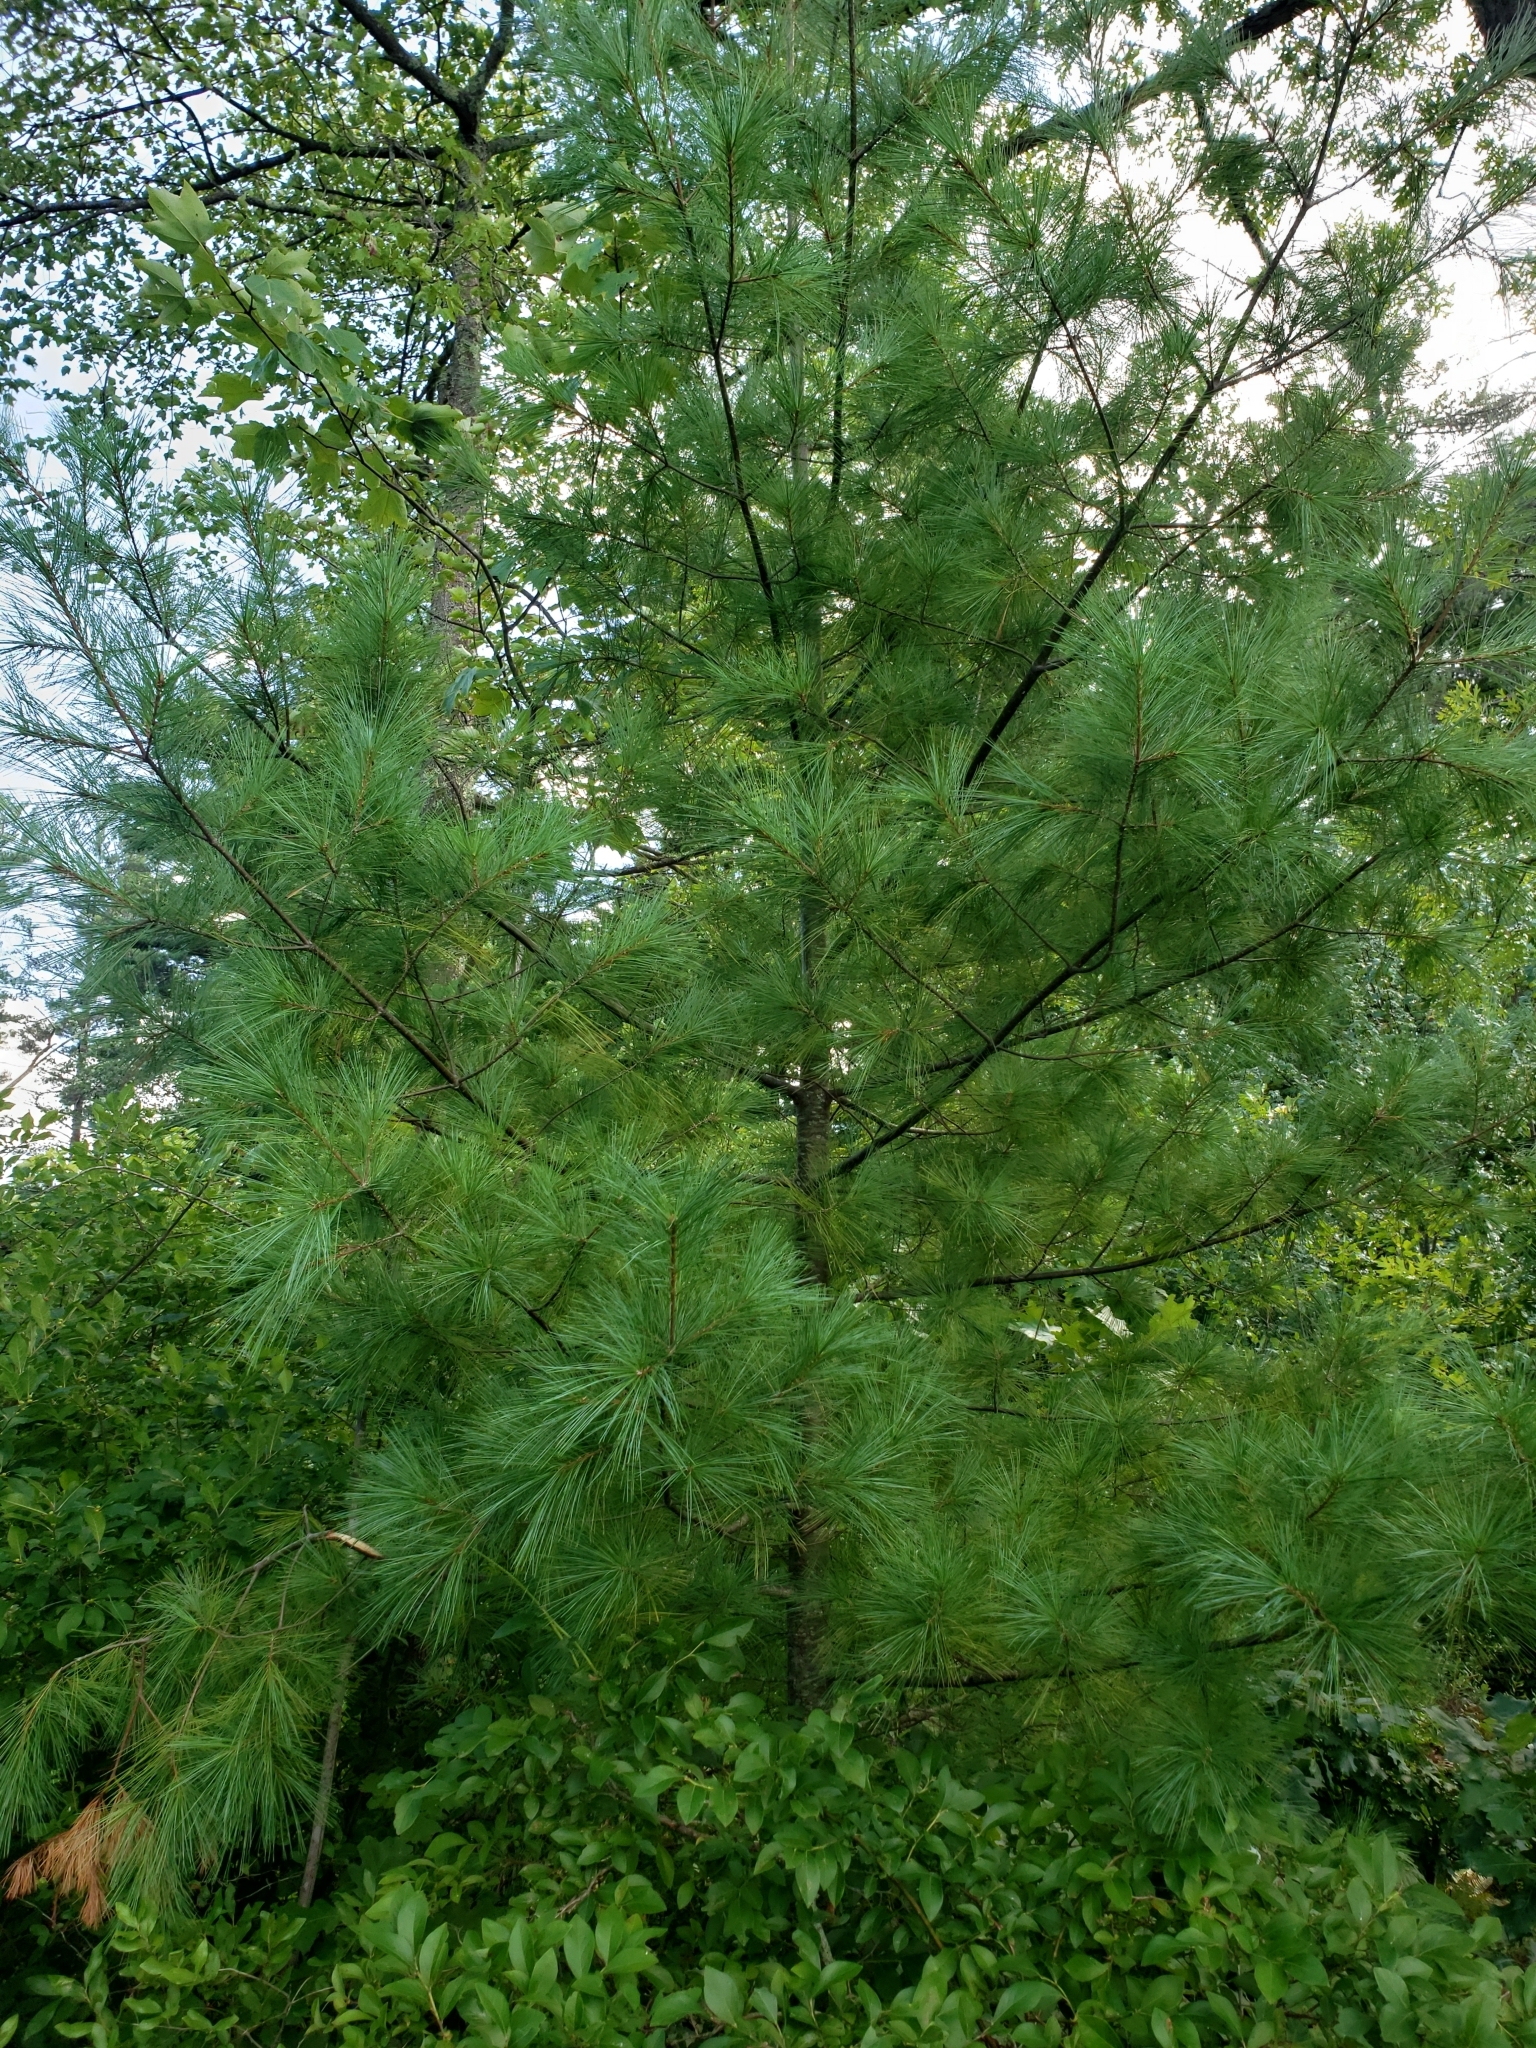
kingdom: Plantae
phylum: Tracheophyta
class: Pinopsida
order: Pinales
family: Pinaceae
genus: Pinus
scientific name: Pinus strobus
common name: Weymouth pine
